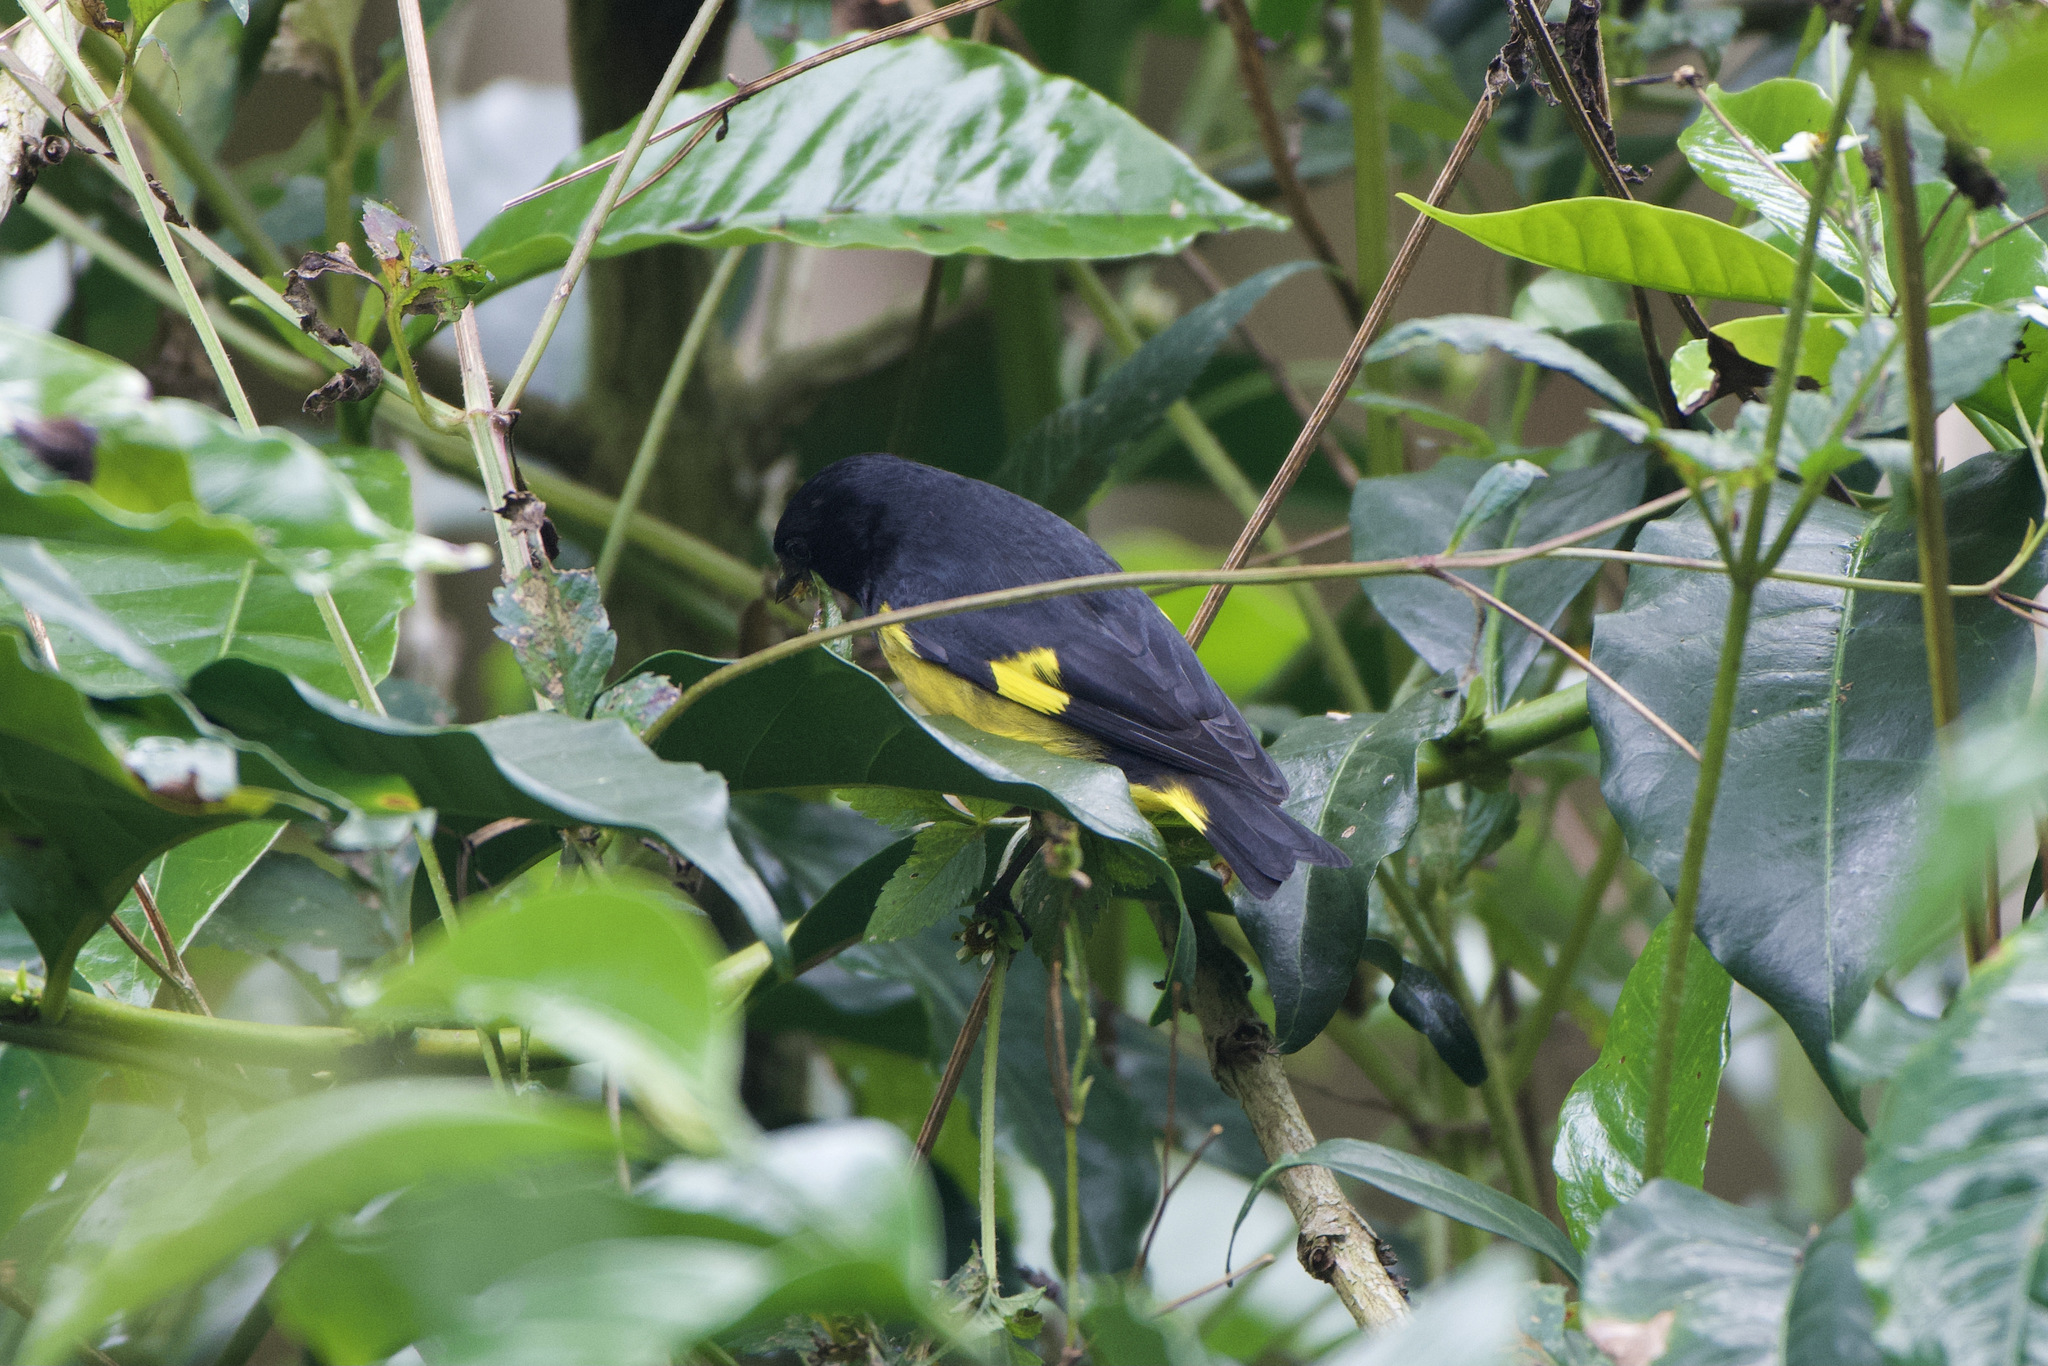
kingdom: Animalia
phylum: Chordata
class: Aves
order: Passeriformes
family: Fringillidae
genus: Spinus
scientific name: Spinus xanthogastrus
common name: Yellow-bellied siskin
